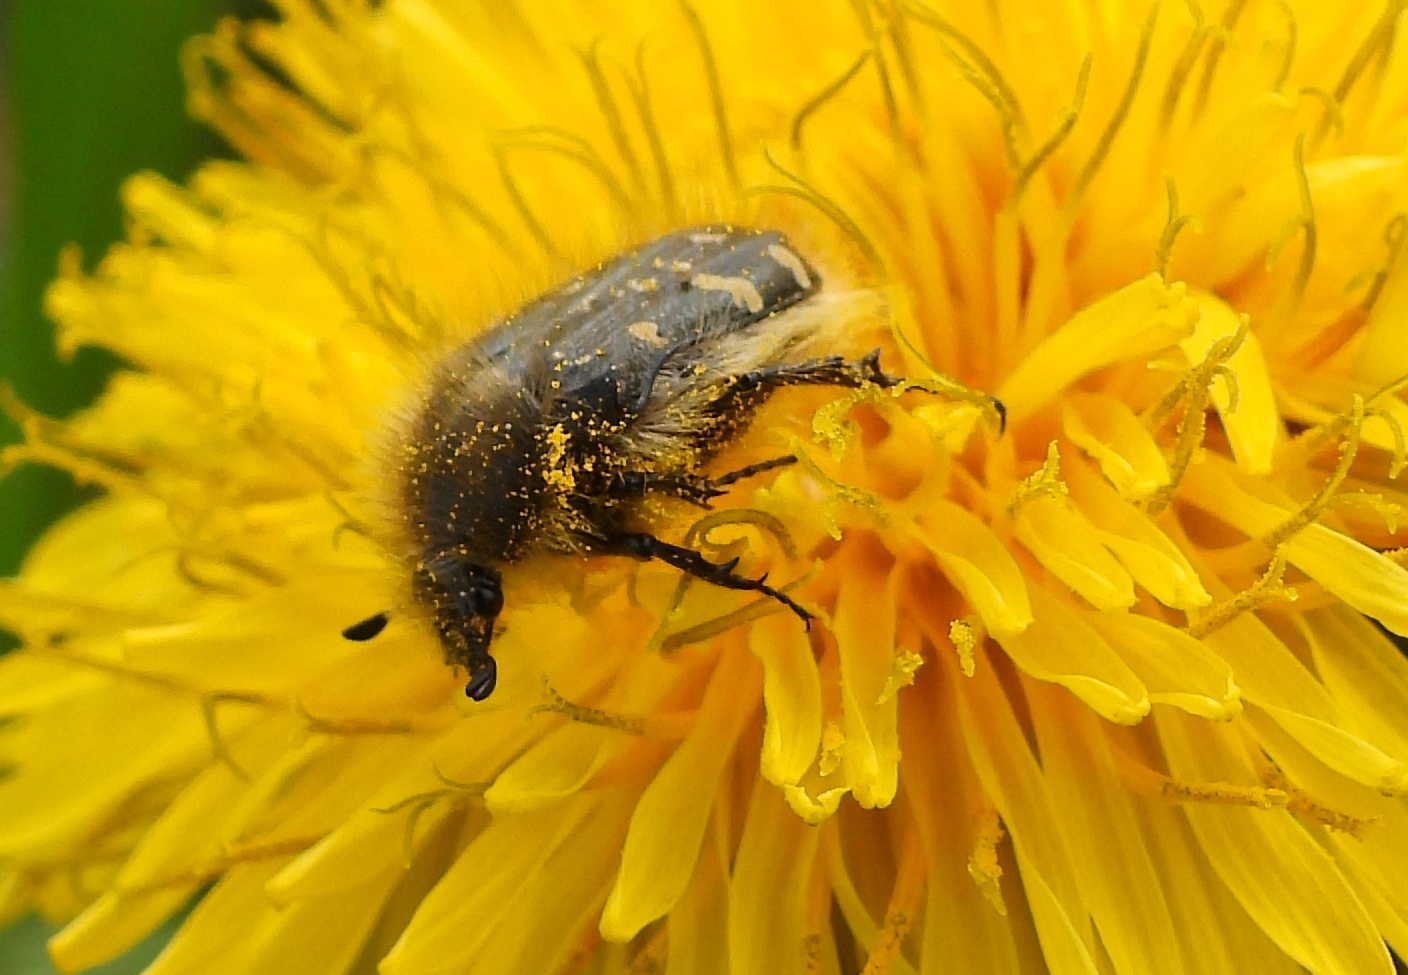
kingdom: Animalia
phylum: Arthropoda
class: Insecta
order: Coleoptera
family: Scarabaeidae
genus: Tropinota
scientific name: Tropinota hirta
